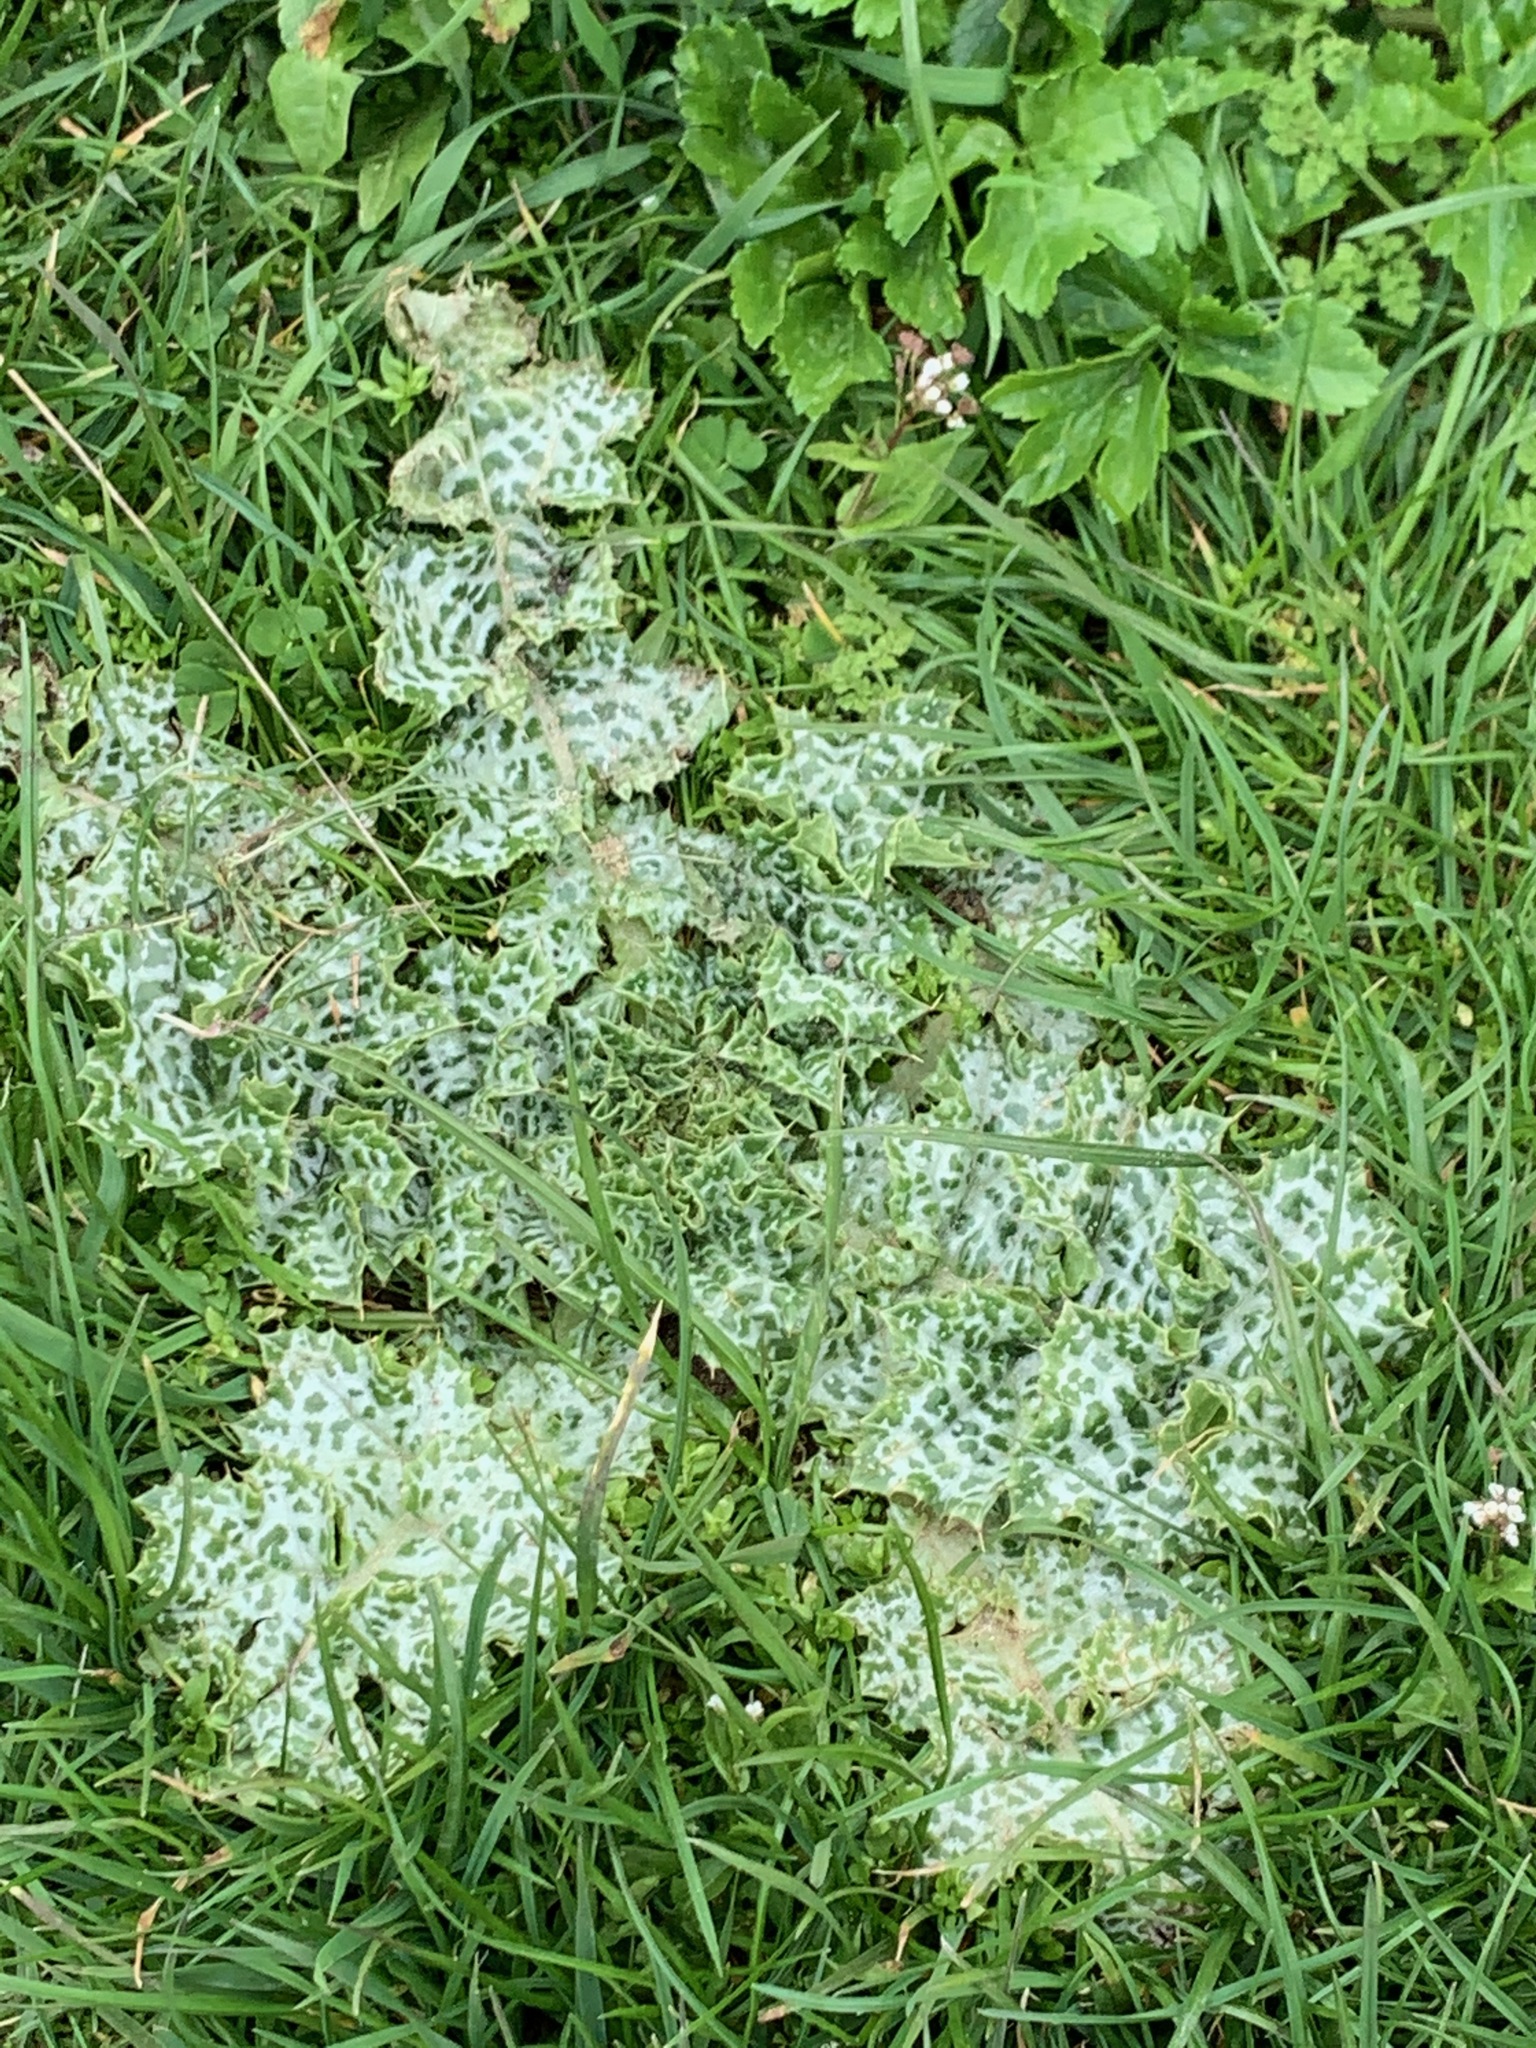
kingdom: Plantae
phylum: Tracheophyta
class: Magnoliopsida
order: Asterales
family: Asteraceae
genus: Silybum
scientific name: Silybum marianum
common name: Milk thistle
